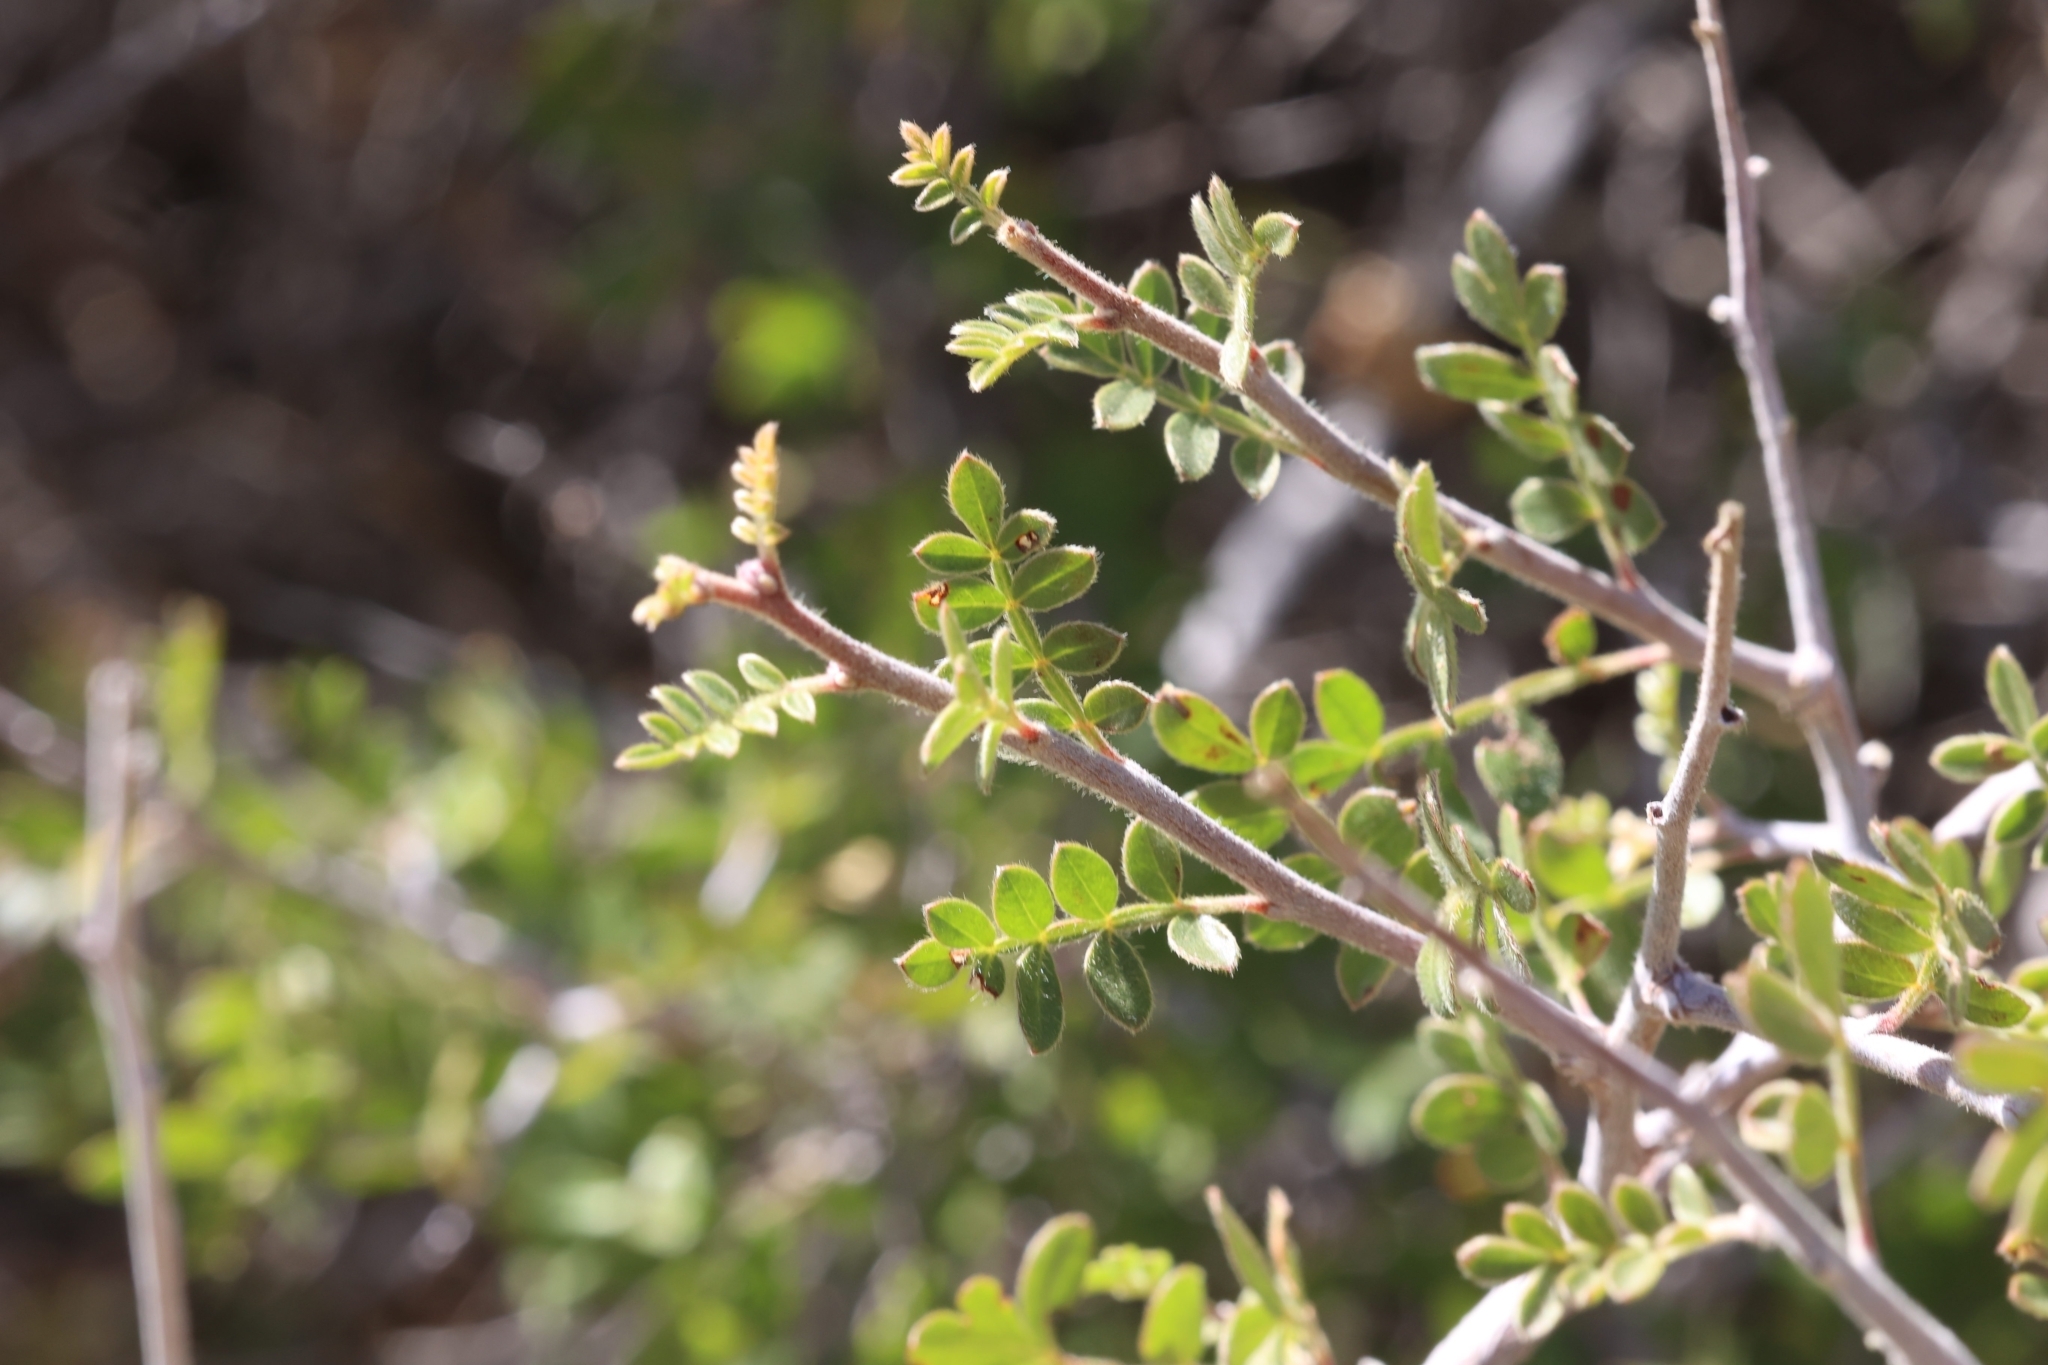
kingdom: Plantae
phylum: Tracheophyta
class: Magnoliopsida
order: Sapindales
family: Anacardiaceae
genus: Rhus
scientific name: Rhus microphylla
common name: Desert sumac
